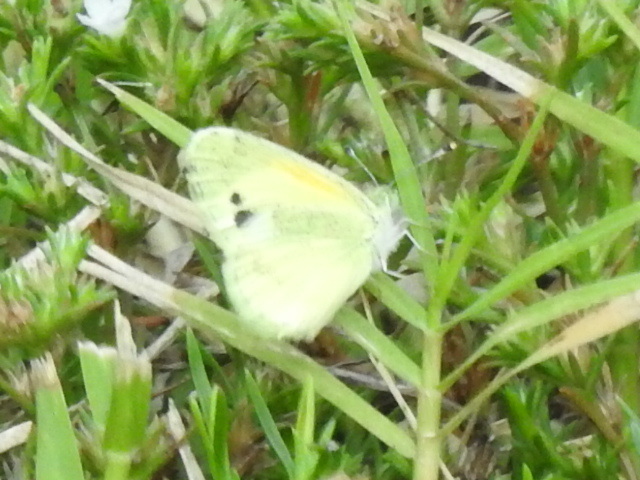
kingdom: Animalia
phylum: Arthropoda
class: Insecta
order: Lepidoptera
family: Pieridae
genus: Nathalis
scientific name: Nathalis iole
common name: Dainty sulphur
